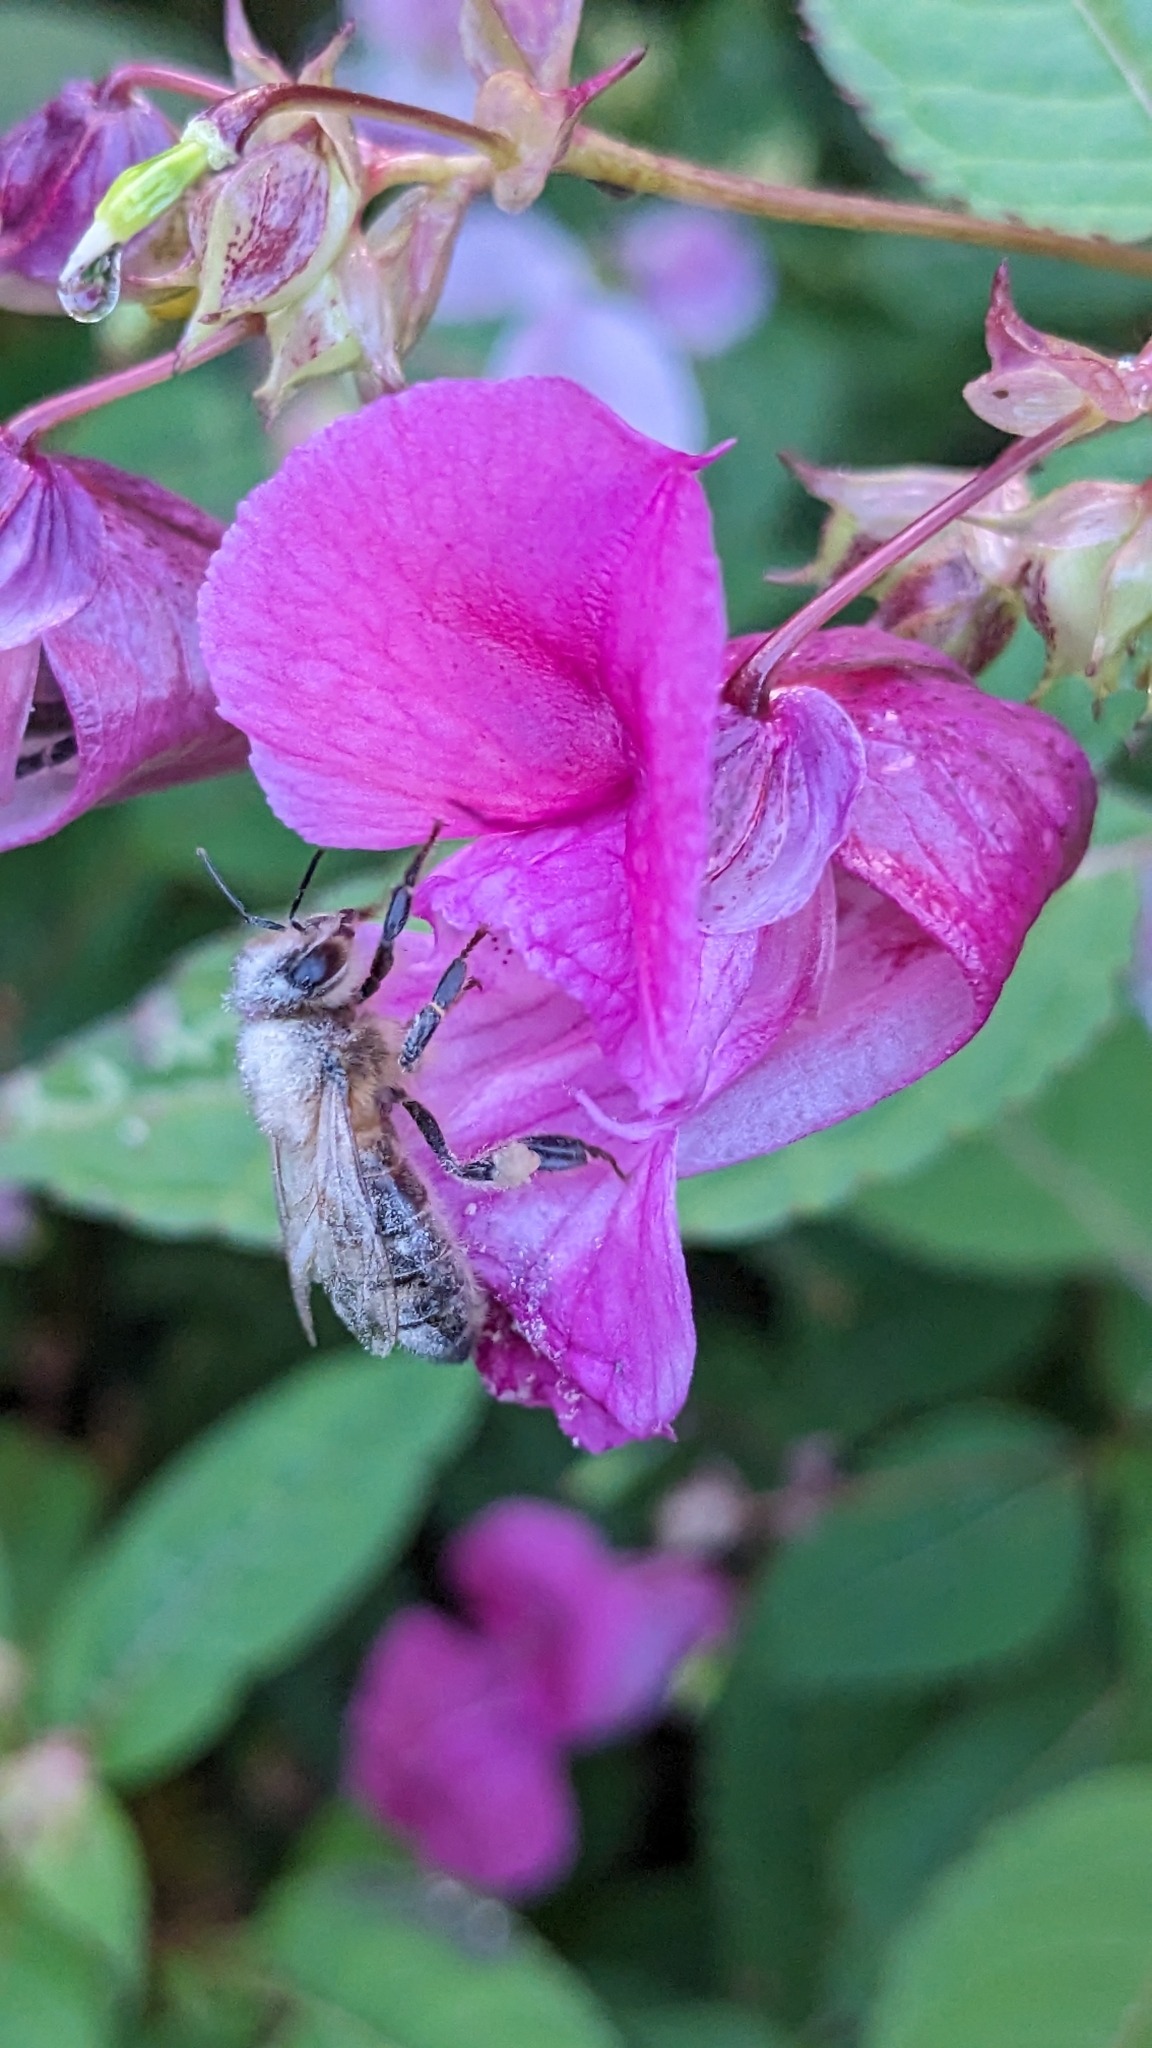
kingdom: Animalia
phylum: Arthropoda
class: Insecta
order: Hymenoptera
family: Apidae
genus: Apis
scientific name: Apis mellifera
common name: Honey bee
